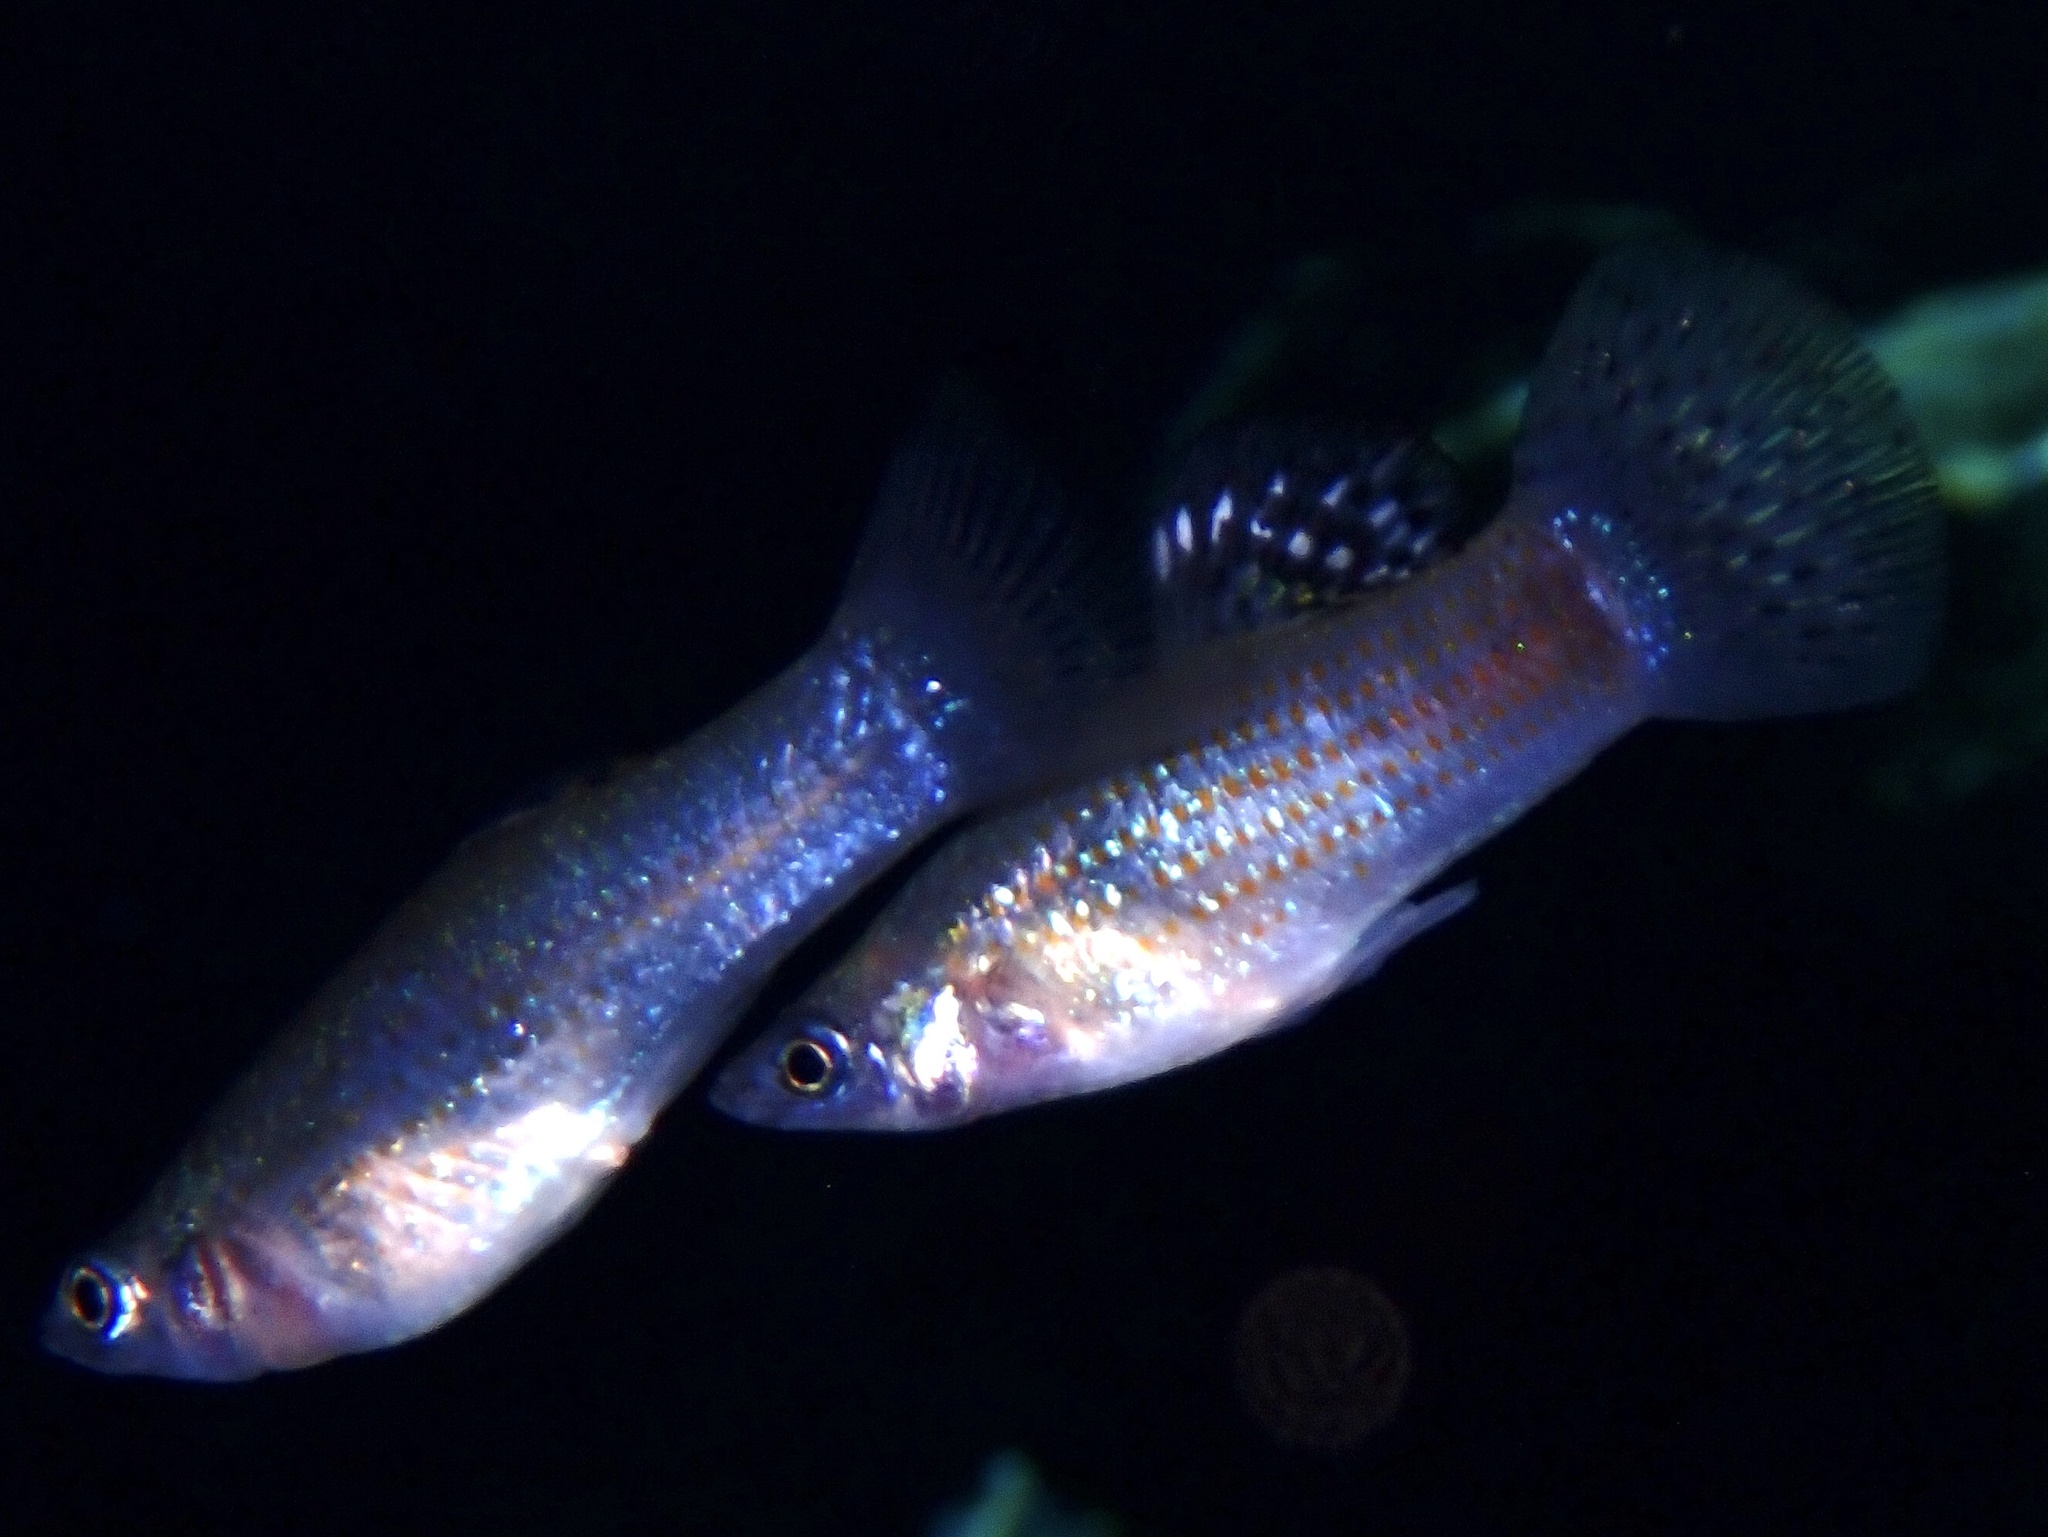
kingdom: Animalia
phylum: Chordata
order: Cyprinodontiformes
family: Poeciliidae
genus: Poecilia
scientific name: Poecilia orri
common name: Mangrove molly
